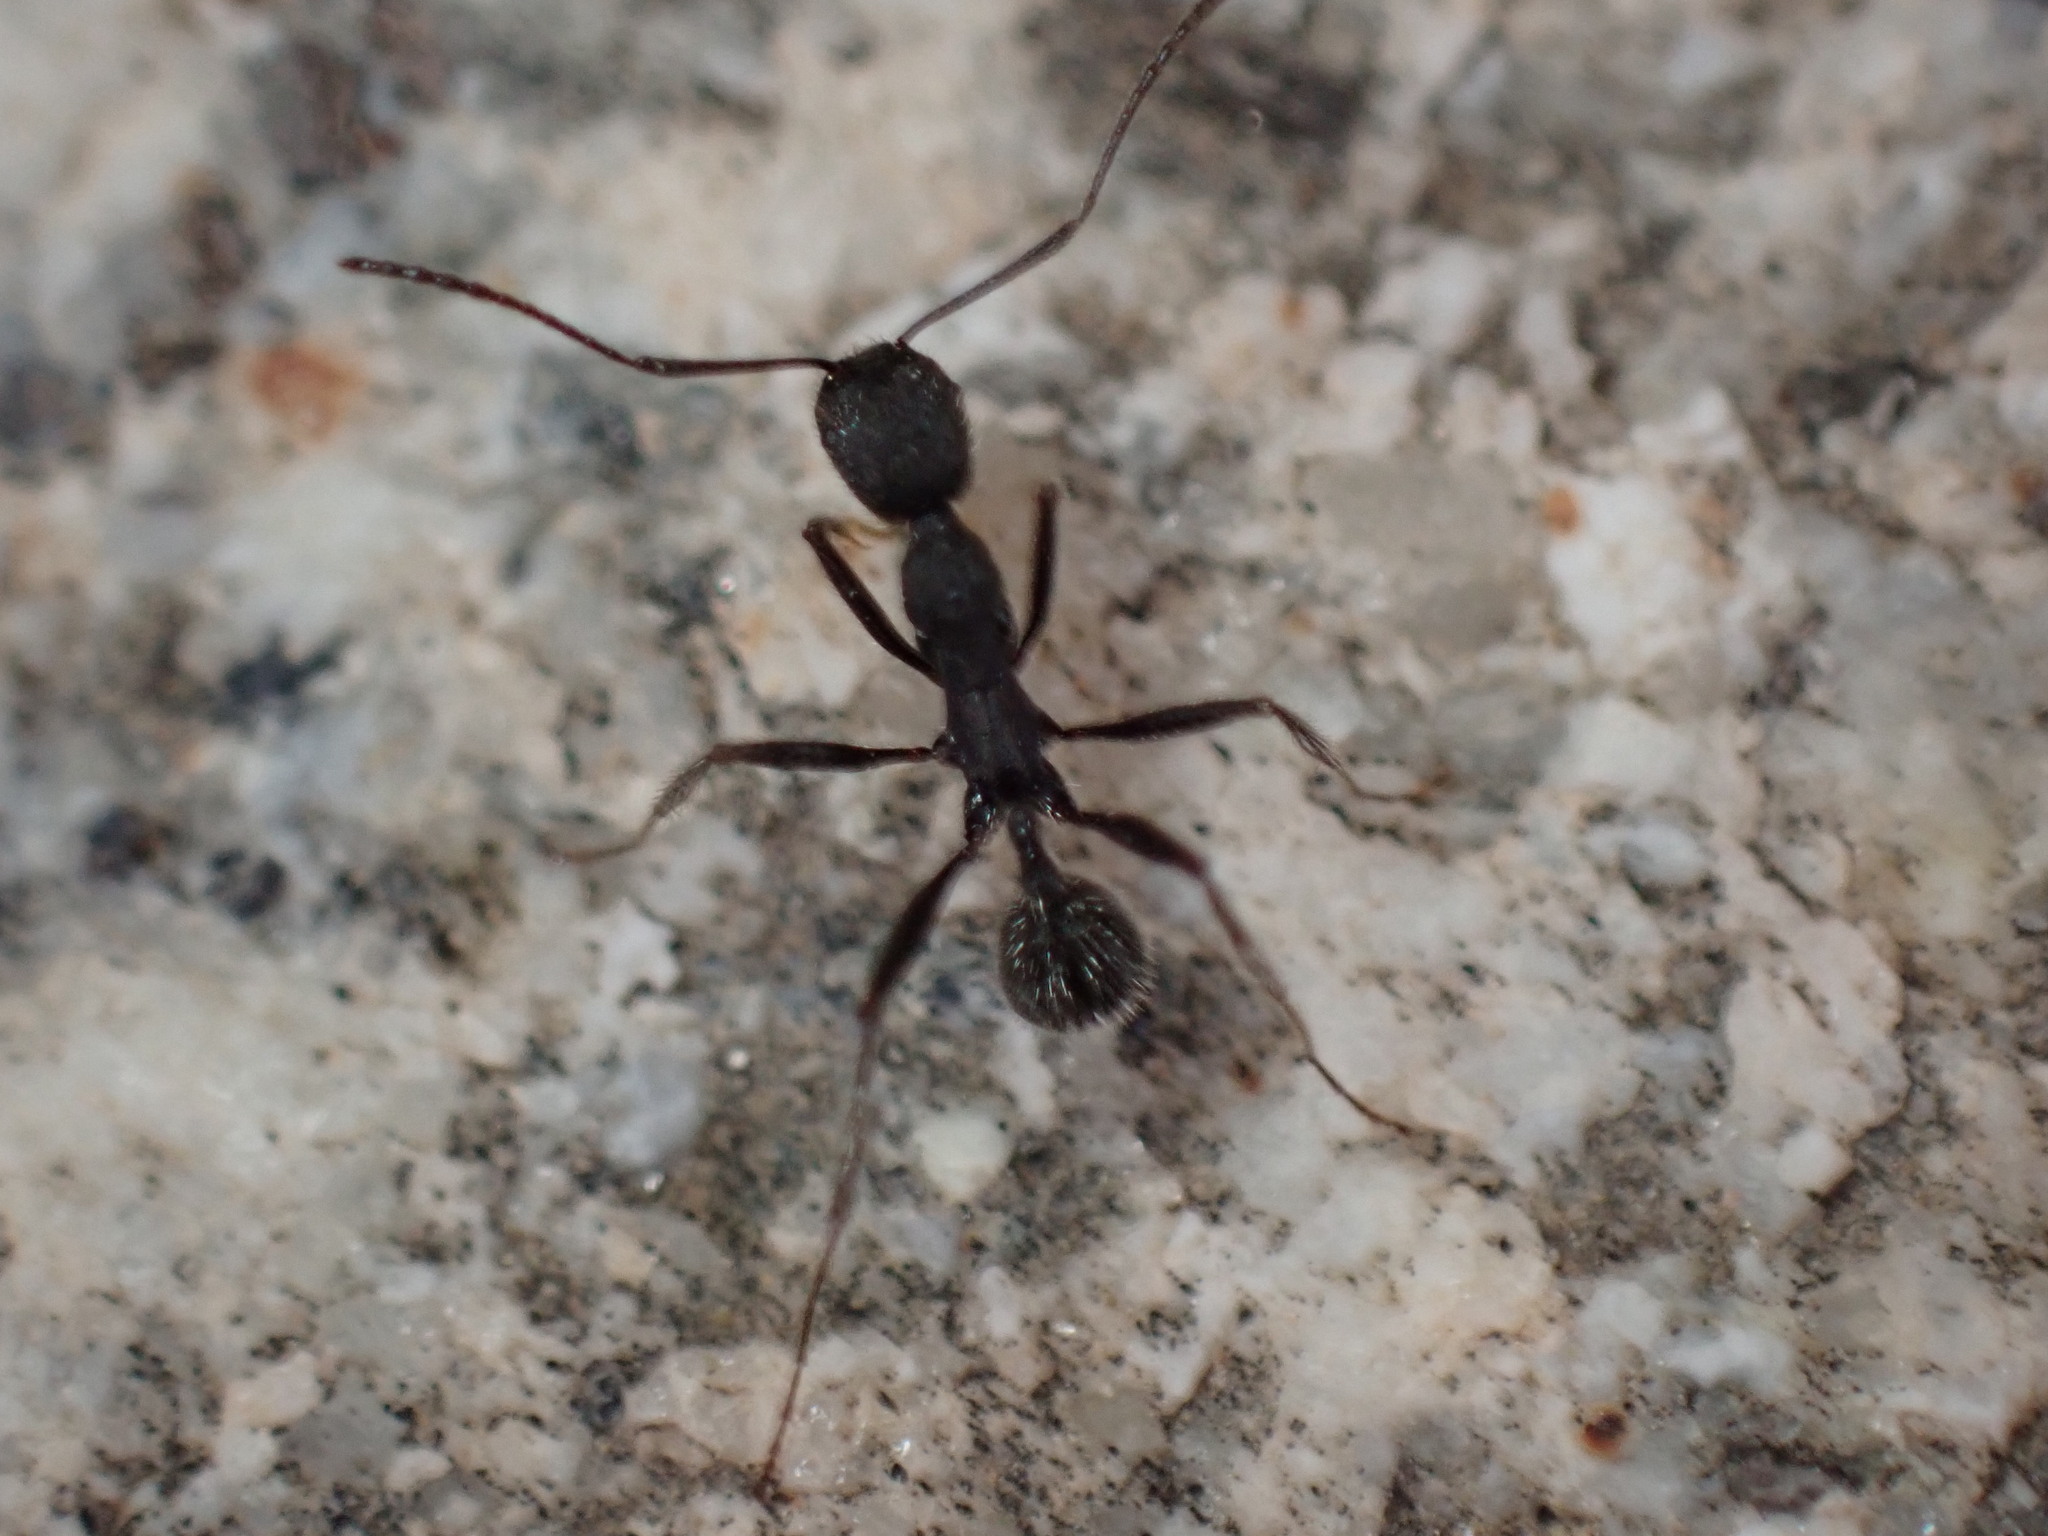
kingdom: Animalia
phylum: Arthropoda
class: Insecta
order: Hymenoptera
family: Formicidae
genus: Aphaenogaster
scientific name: Aphaenogaster senilis
